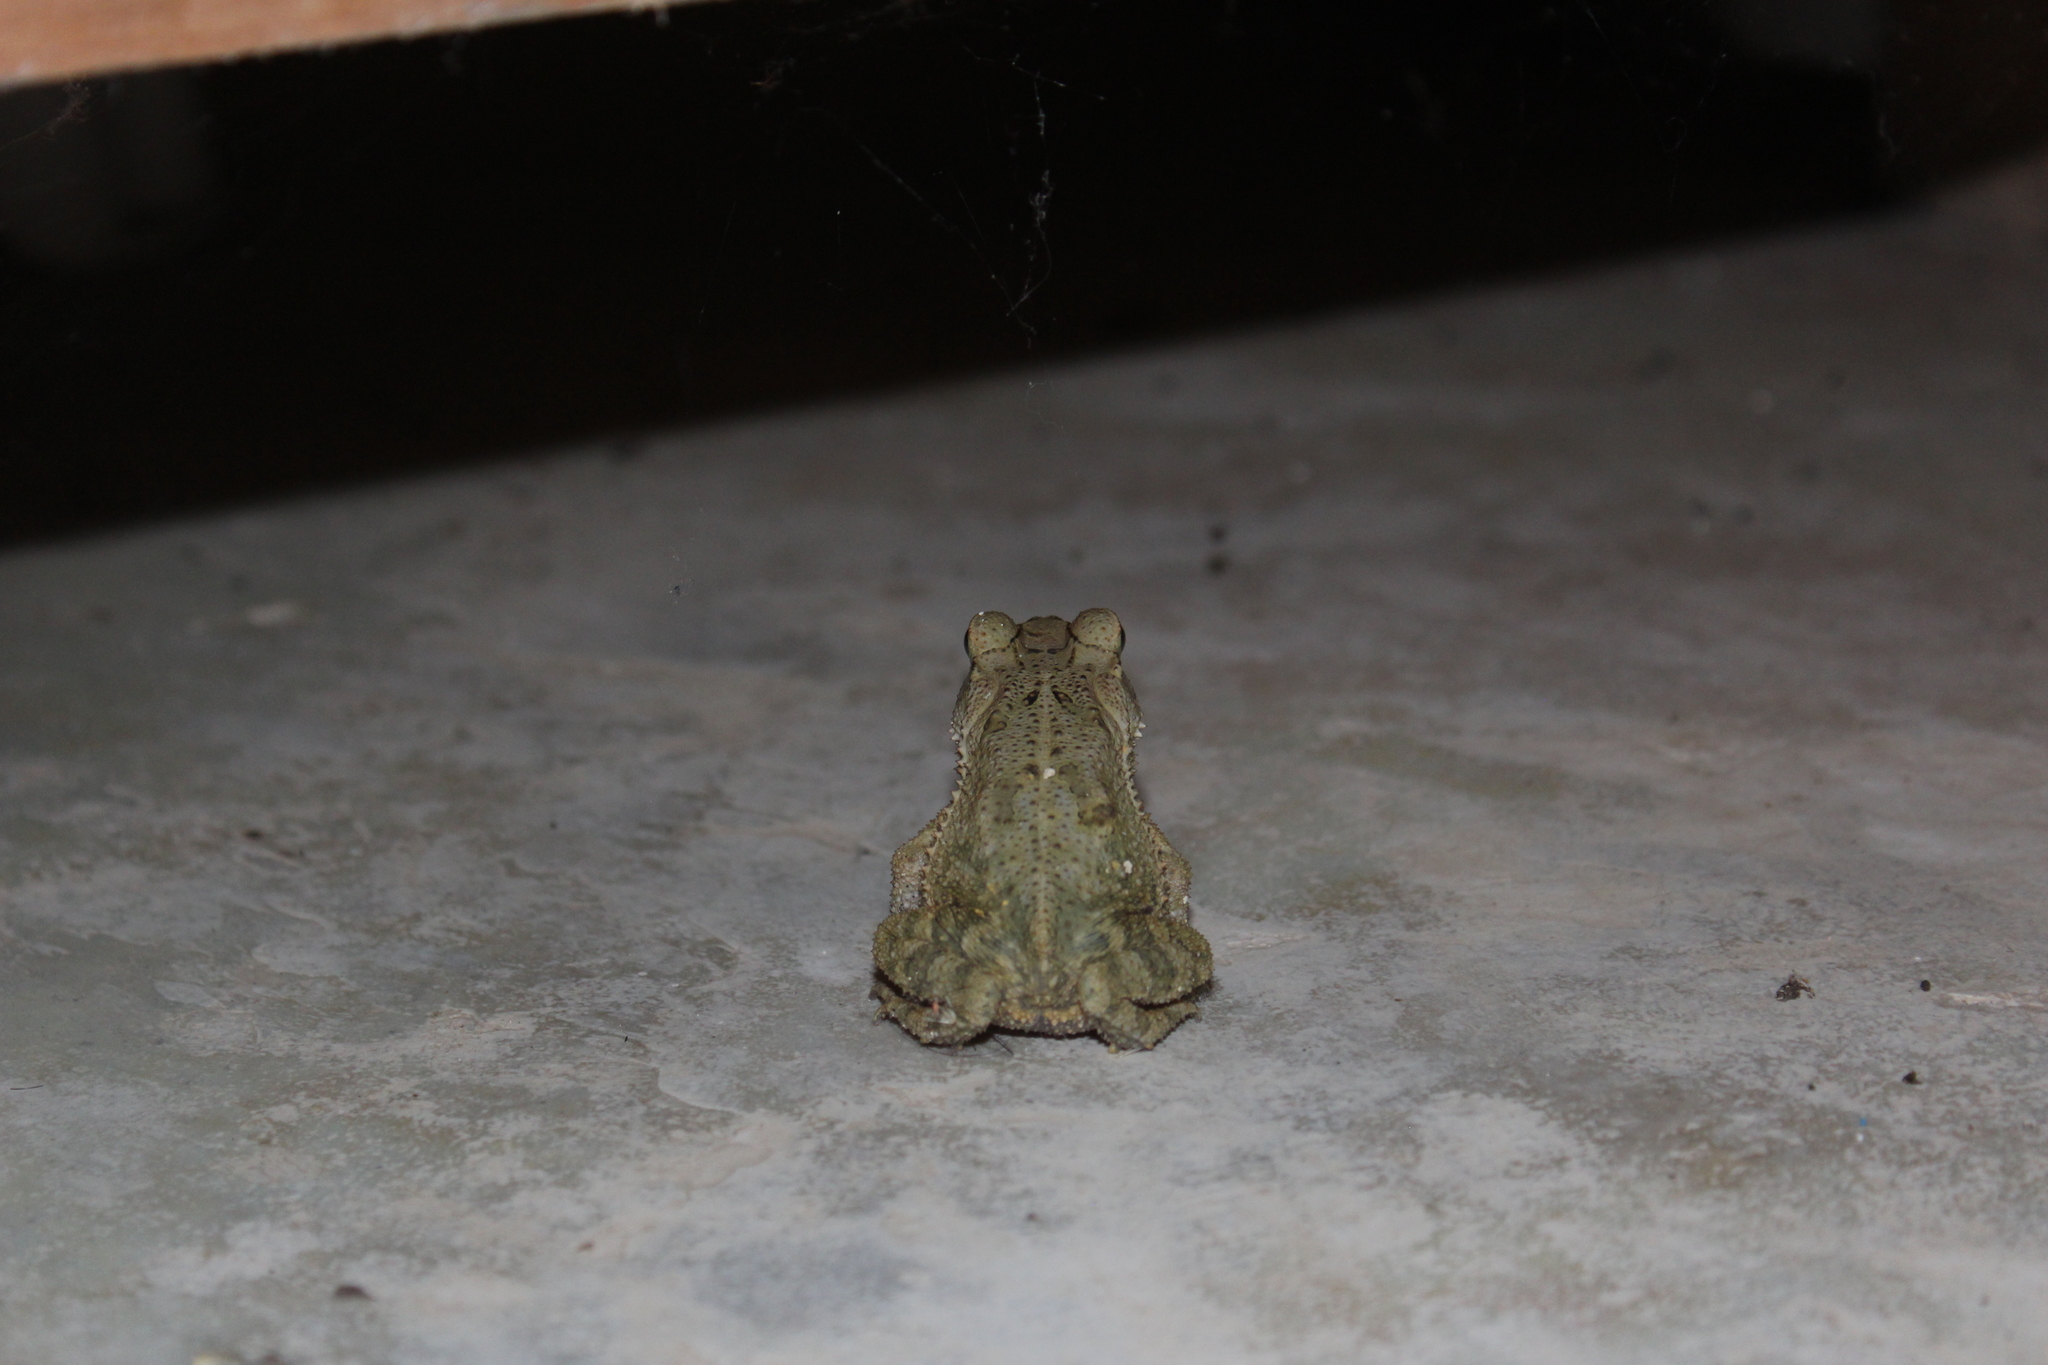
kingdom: Animalia
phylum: Chordata
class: Amphibia
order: Anura
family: Bufonidae
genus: Incilius
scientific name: Incilius valliceps
